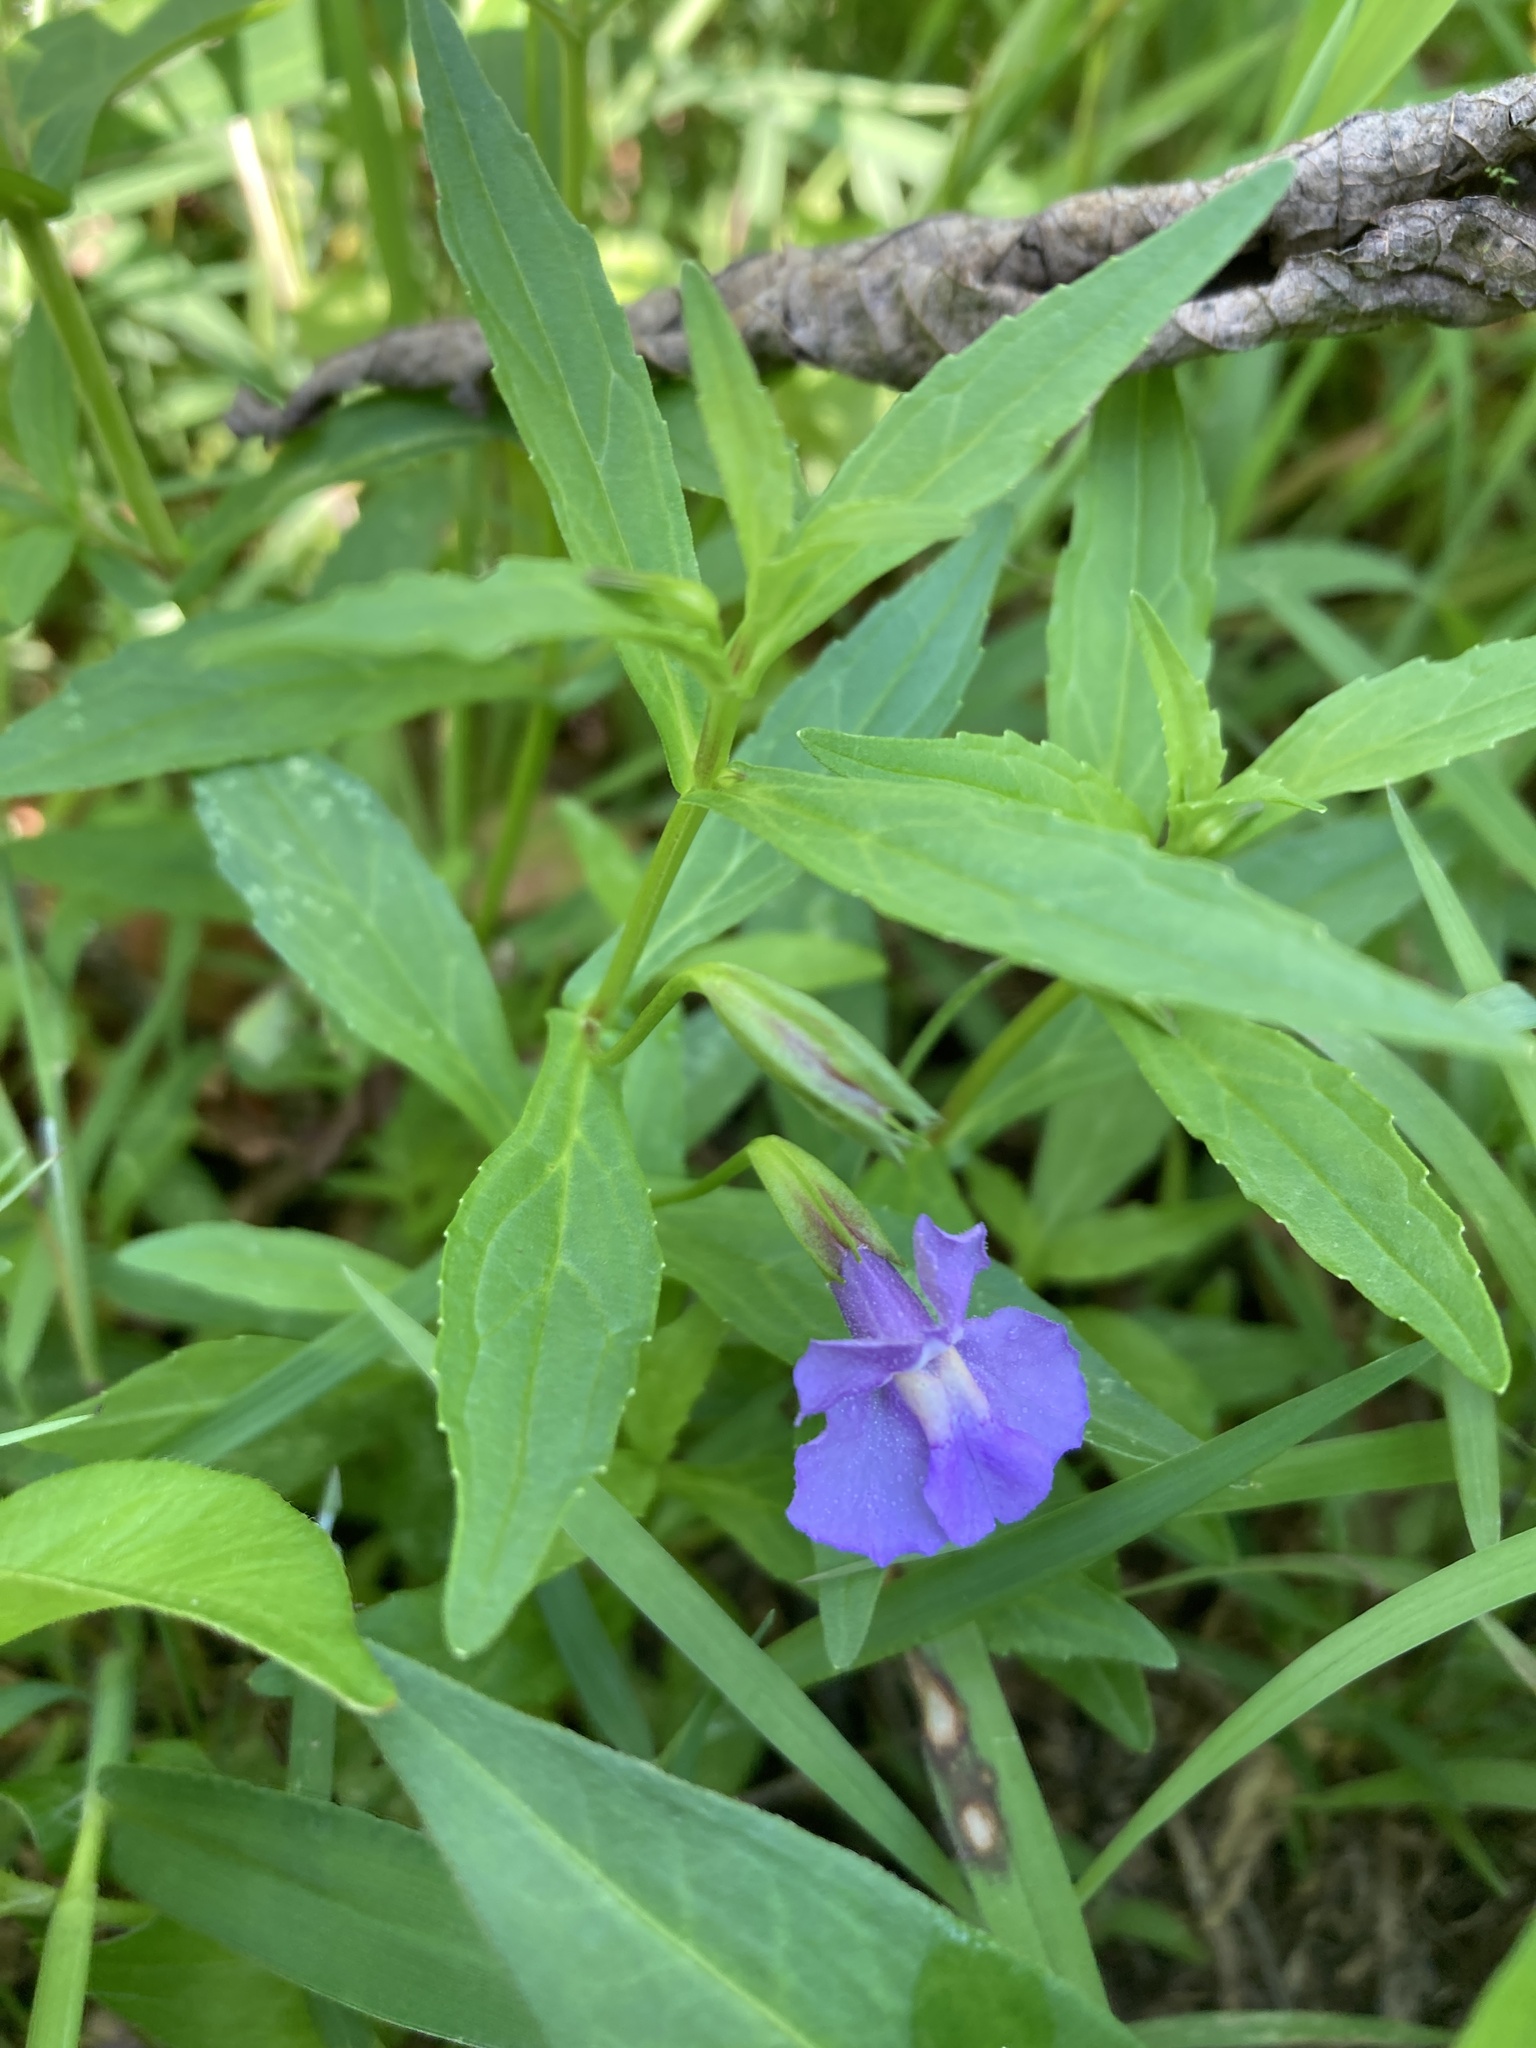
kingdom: Plantae
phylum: Tracheophyta
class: Magnoliopsida
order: Lamiales
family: Phrymaceae
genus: Mimulus
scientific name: Mimulus ringens
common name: Allegheny monkeyflower
